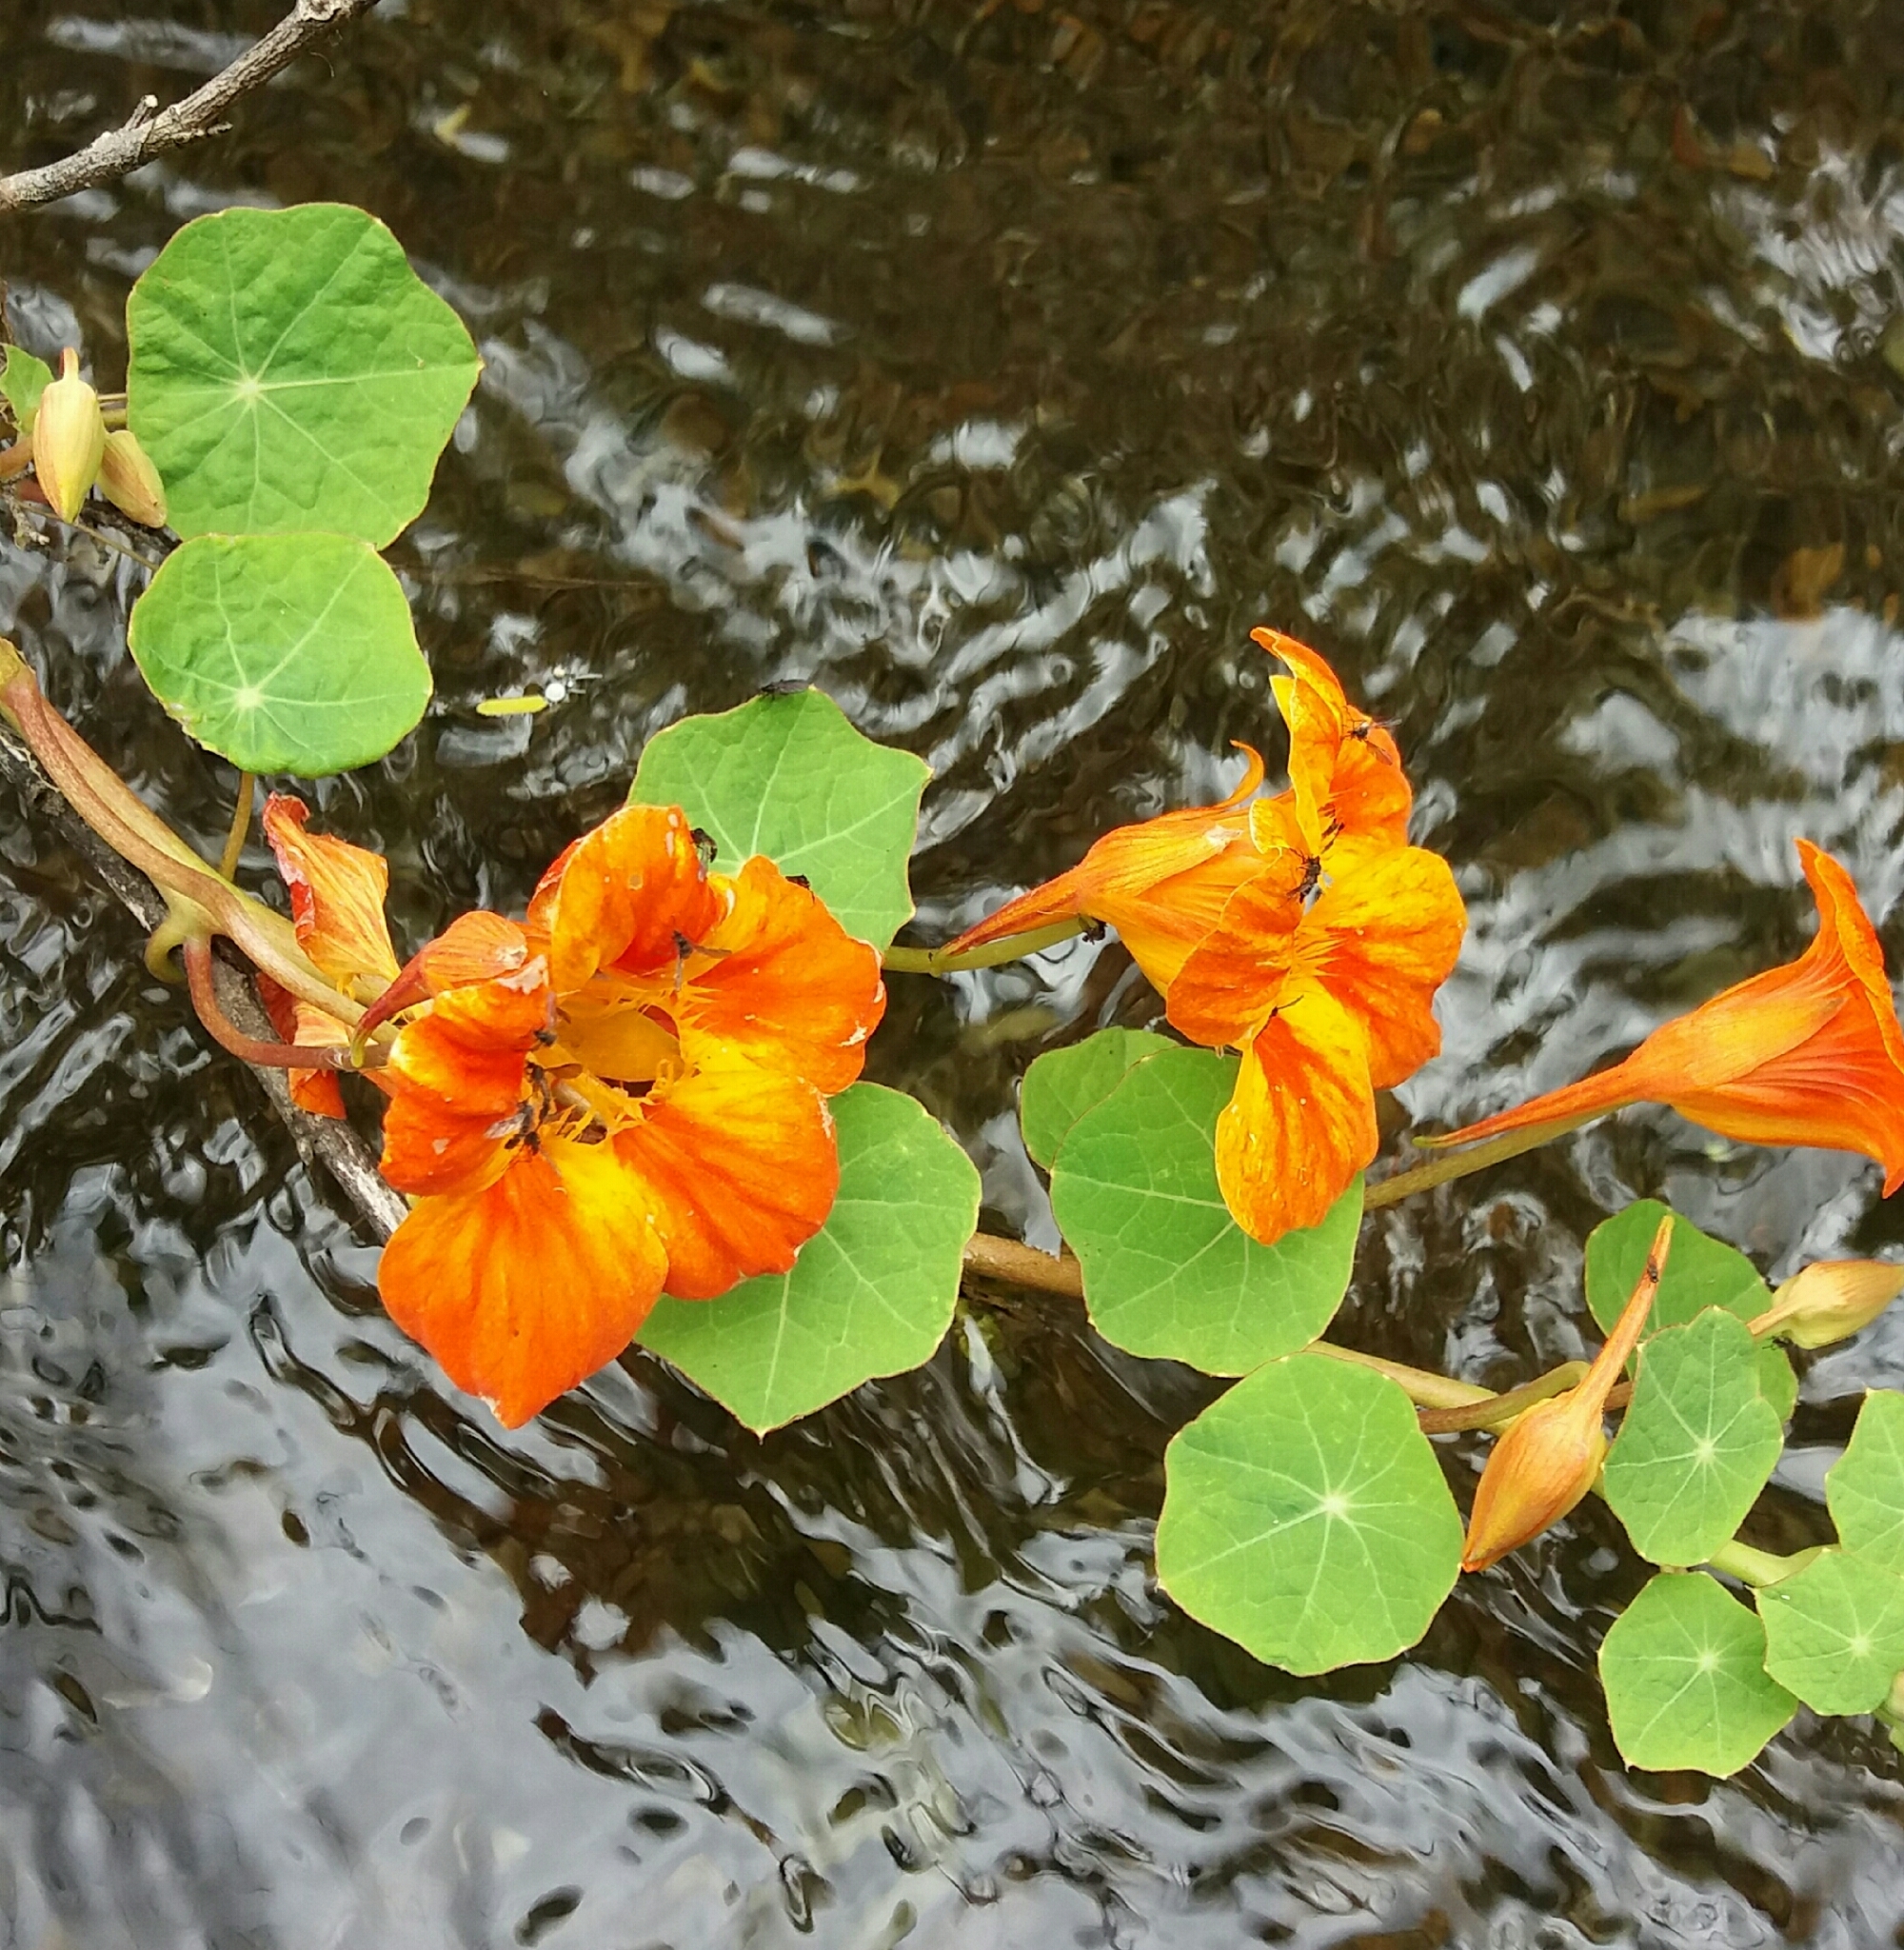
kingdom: Plantae
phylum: Tracheophyta
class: Magnoliopsida
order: Brassicales
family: Tropaeolaceae
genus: Tropaeolum
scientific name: Tropaeolum majus
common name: Nasturtium
